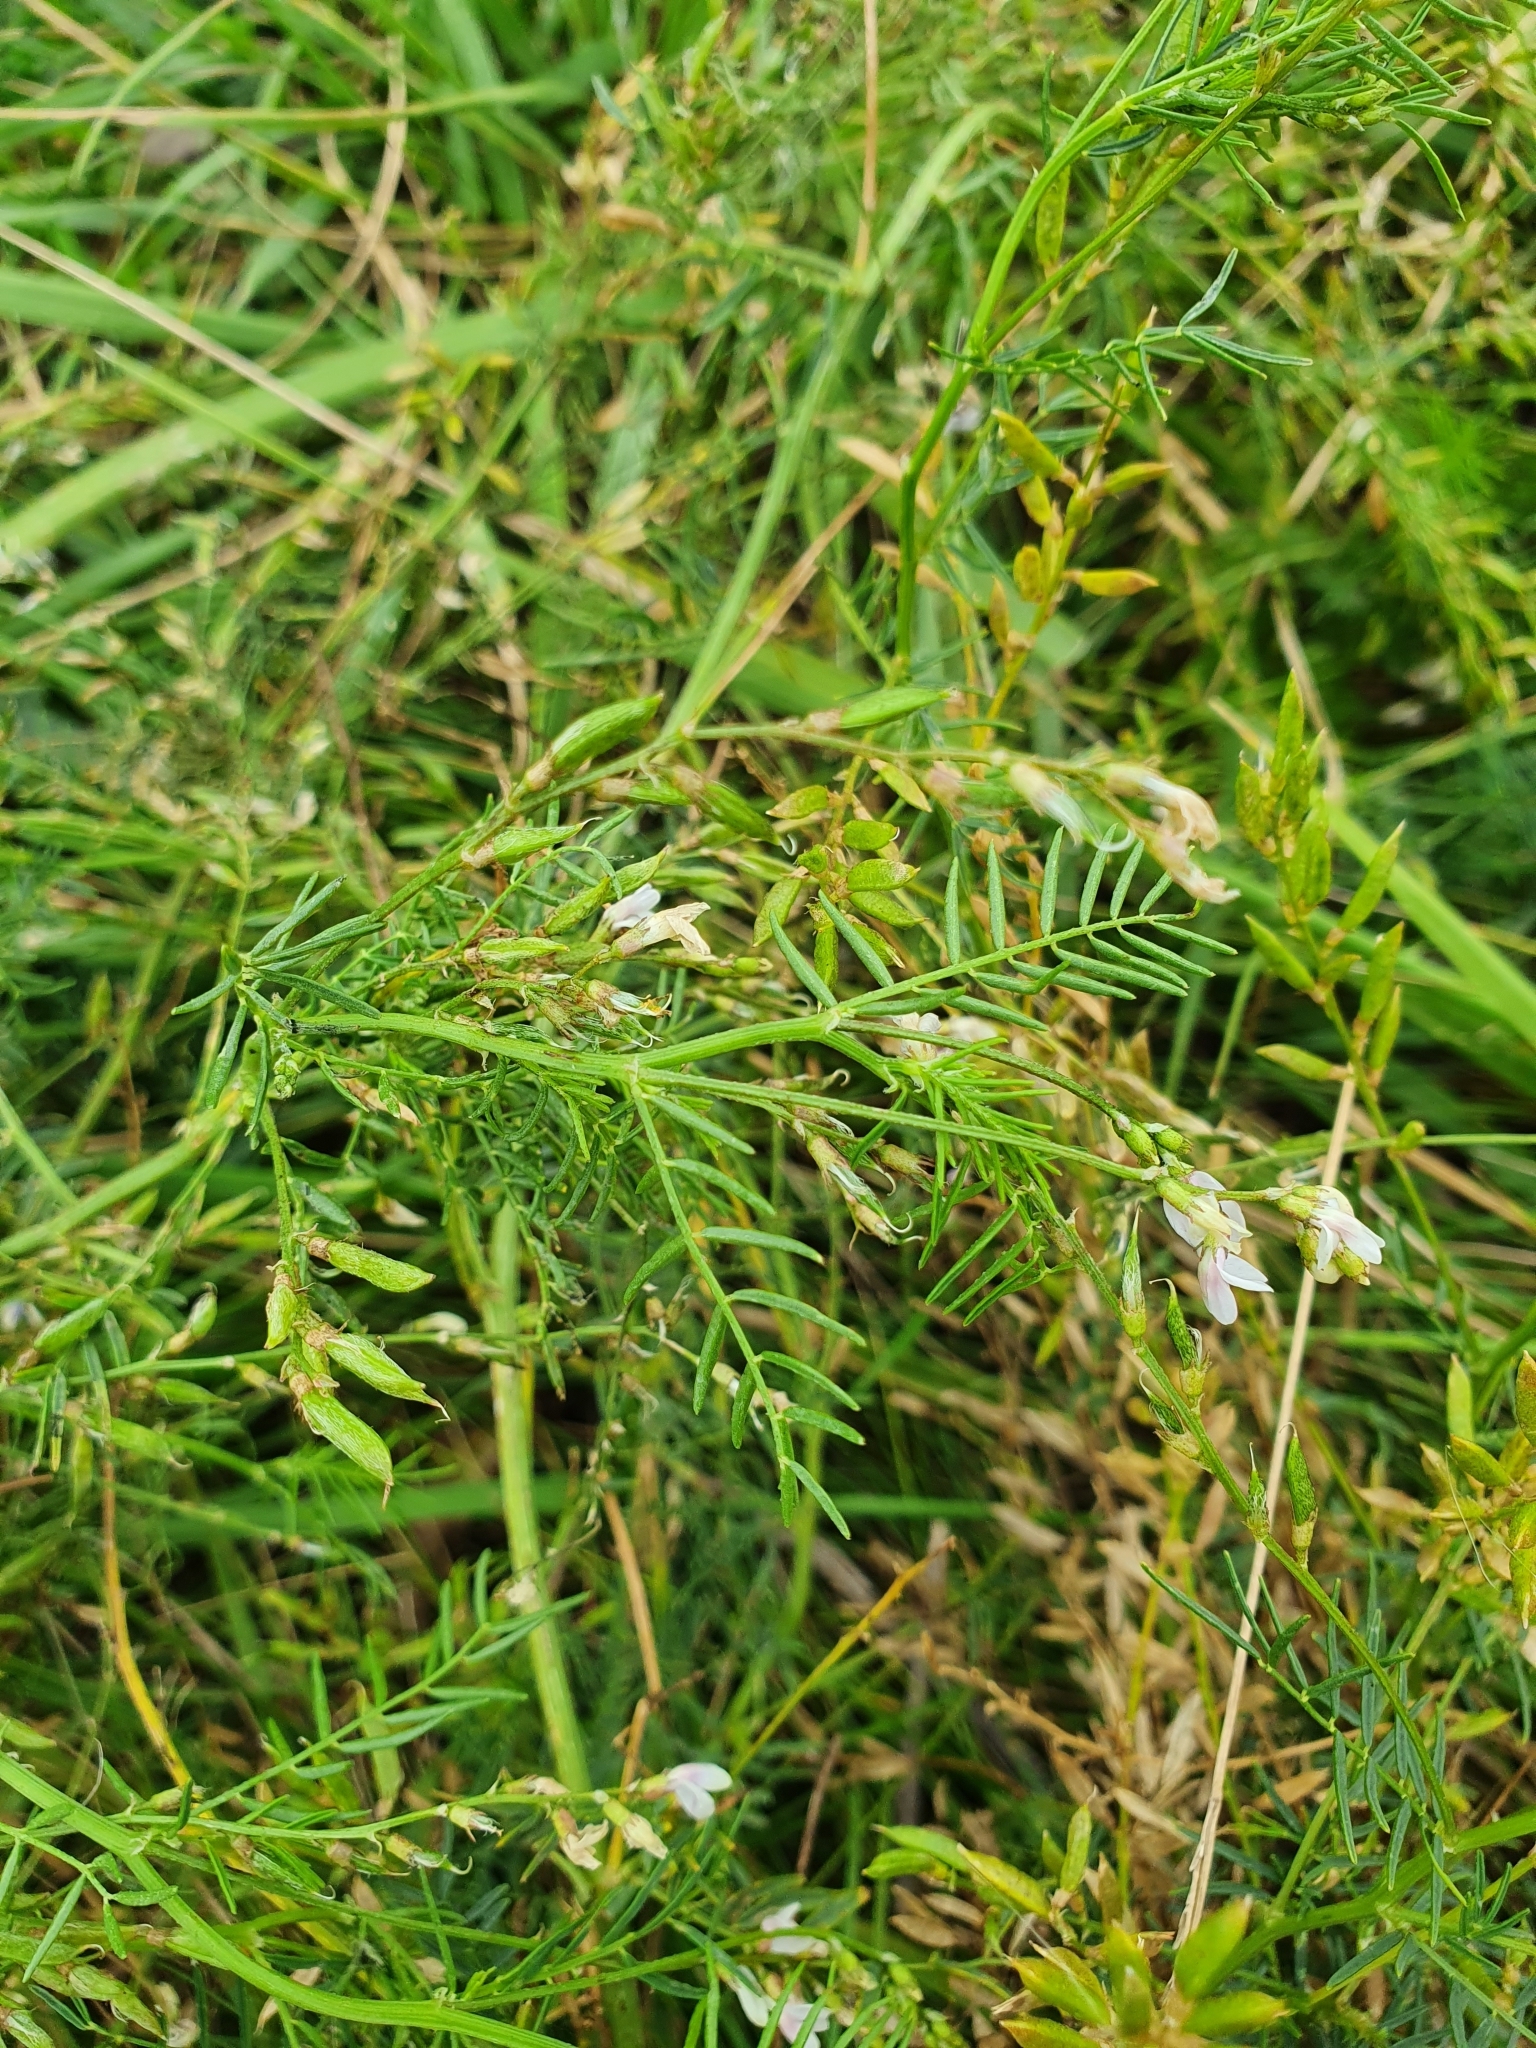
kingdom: Plantae
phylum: Tracheophyta
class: Magnoliopsida
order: Fabales
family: Fabaceae
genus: Astragalus
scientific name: Astragalus sulcatus
